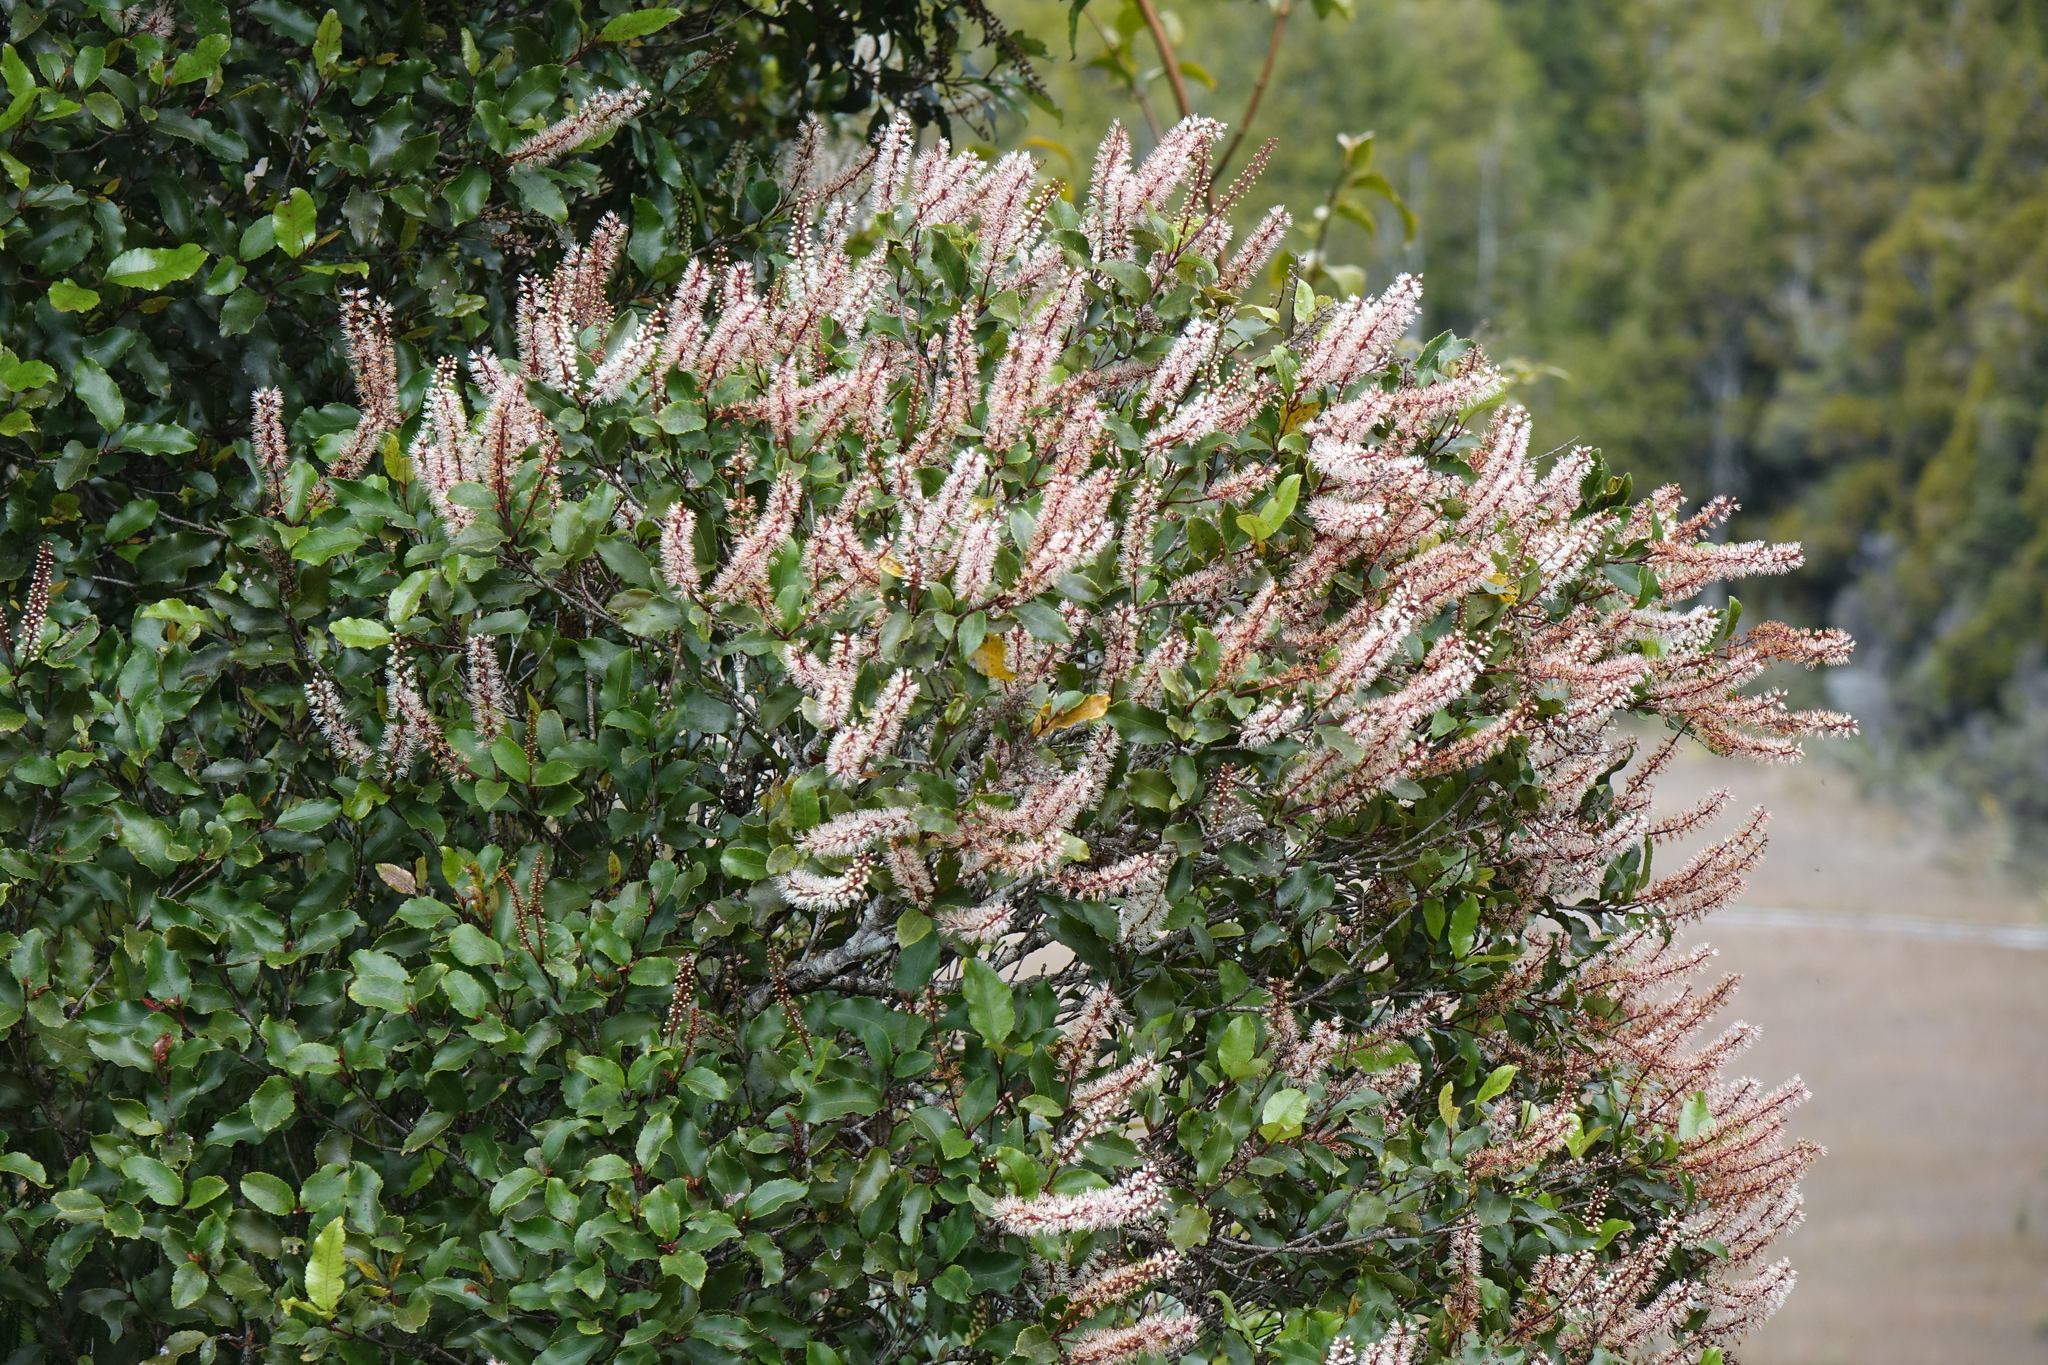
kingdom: Plantae
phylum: Tracheophyta
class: Magnoliopsida
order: Oxalidales
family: Cunoniaceae
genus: Pterophylla
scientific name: Pterophylla racemosa
